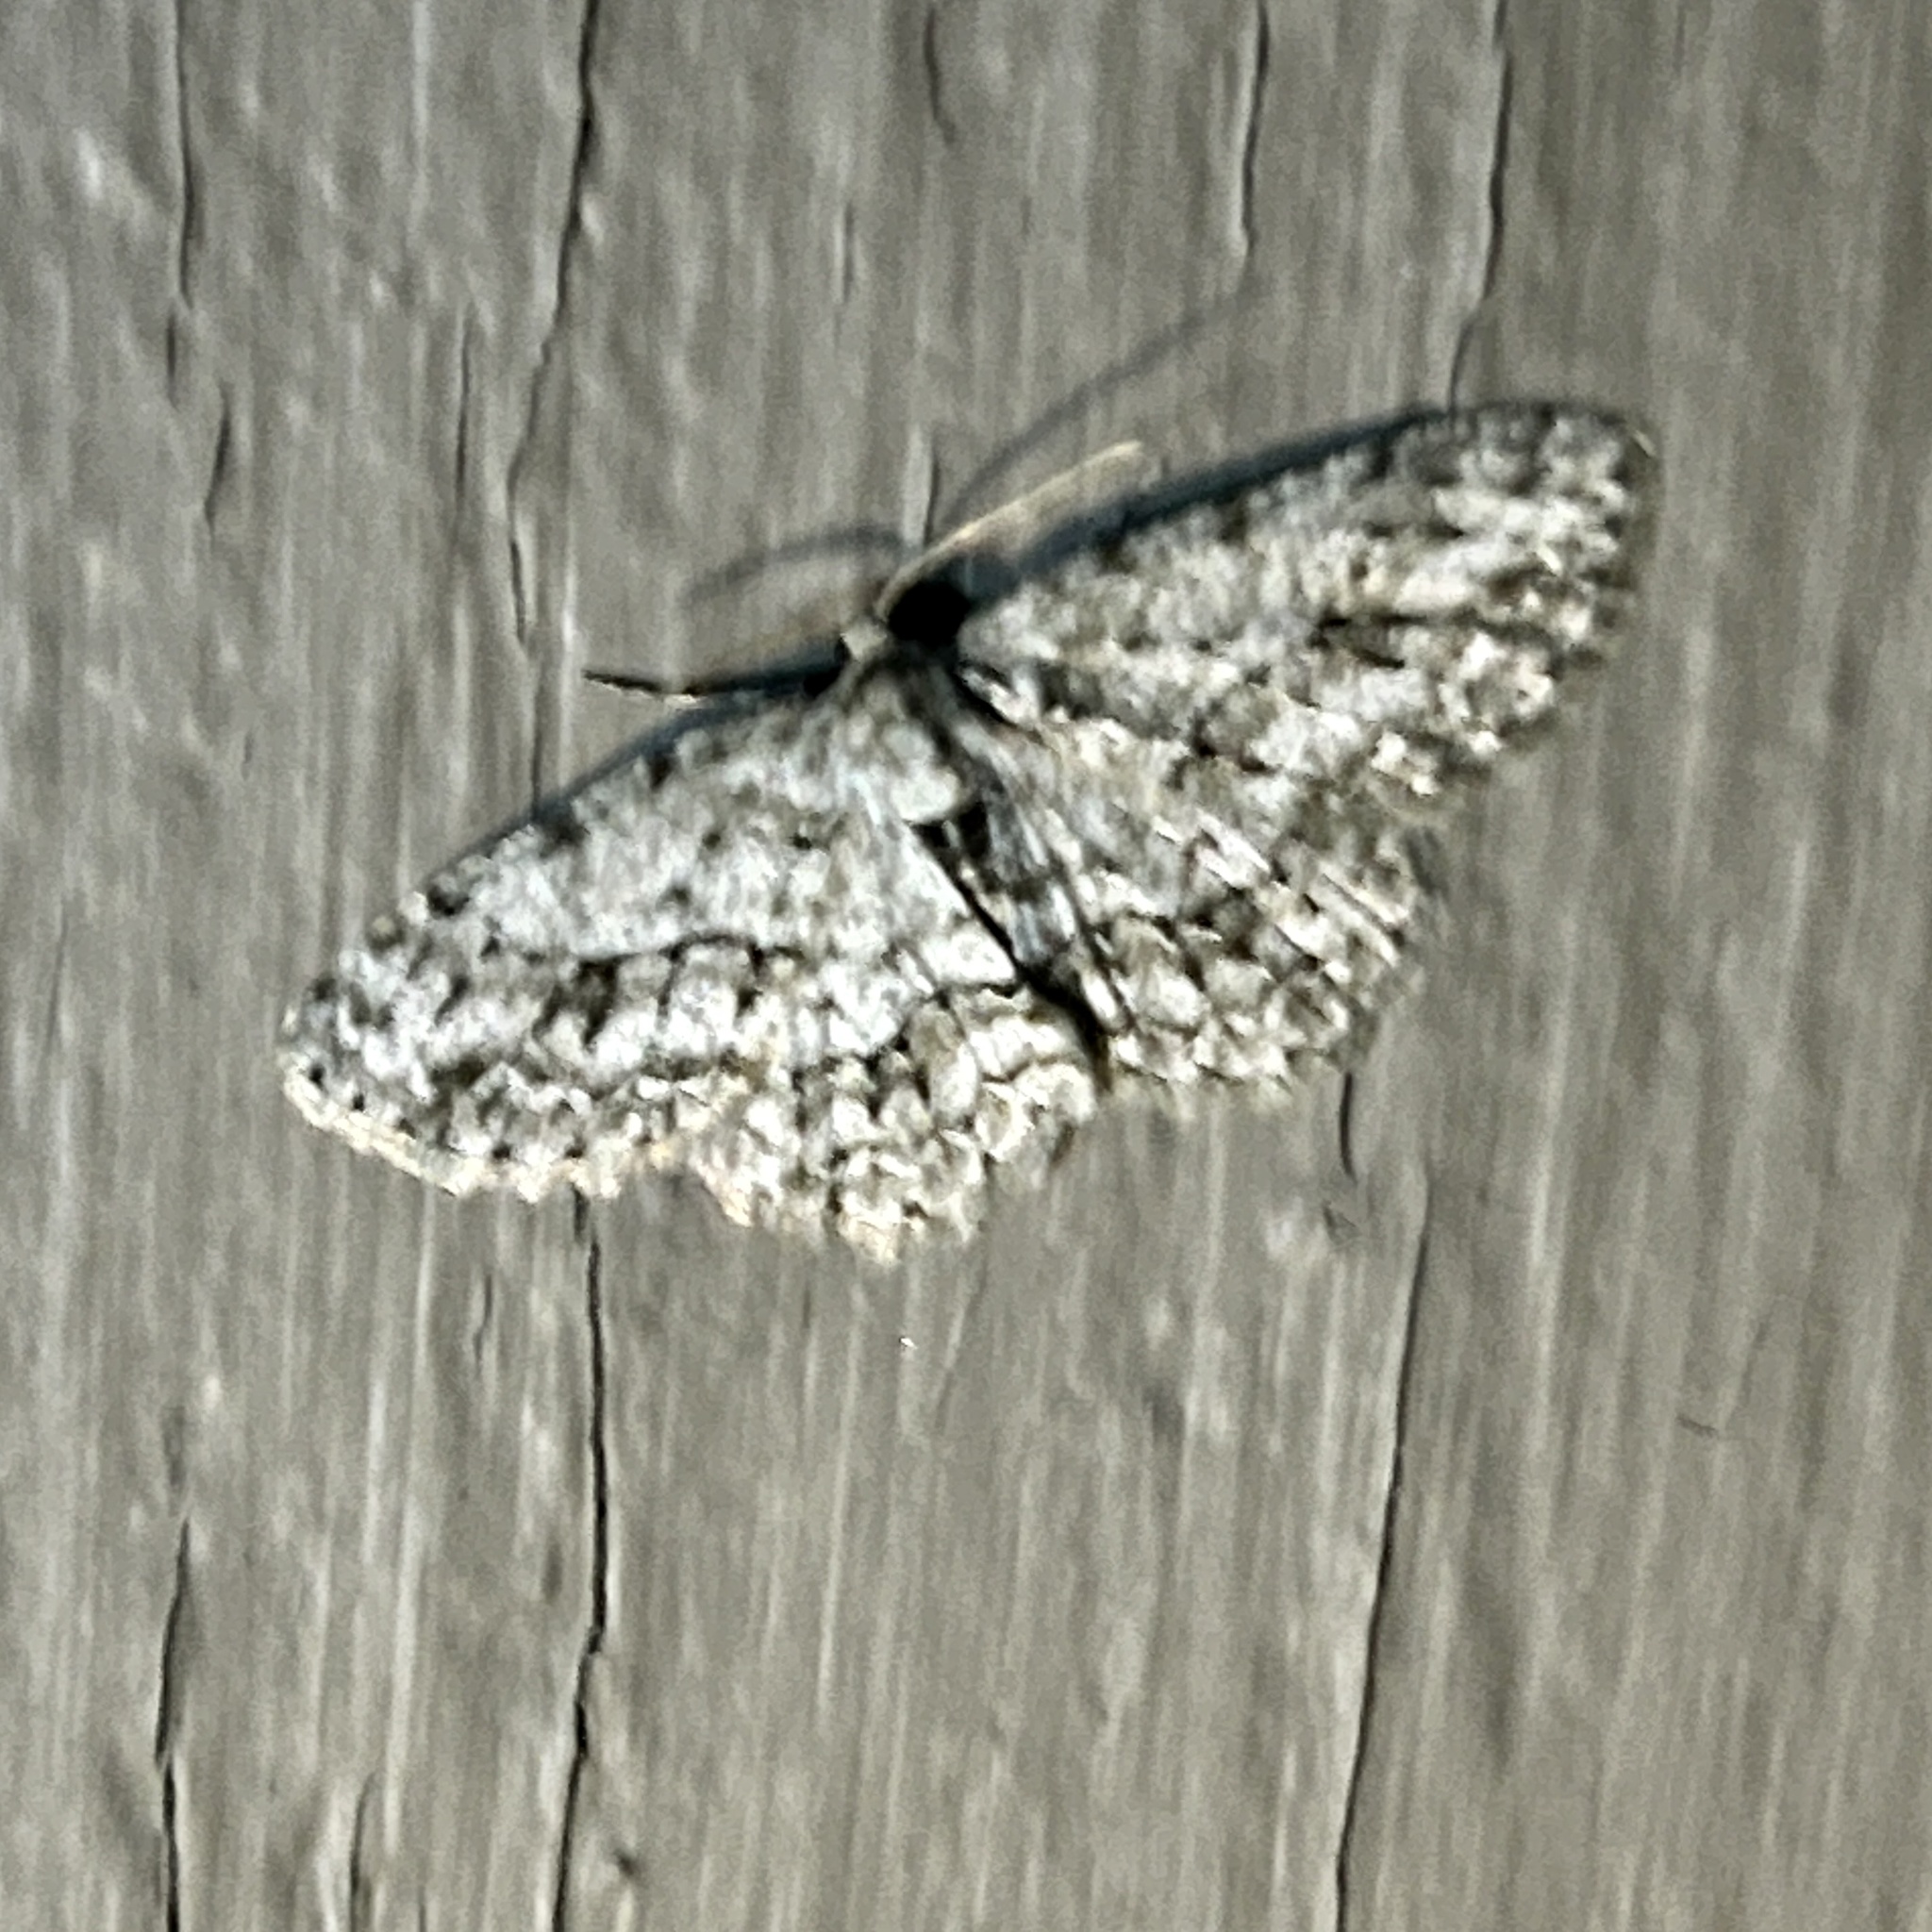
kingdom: Animalia
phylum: Arthropoda
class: Insecta
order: Lepidoptera
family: Geometridae
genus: Ectropis
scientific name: Ectropis crepuscularia
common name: Engrailed
